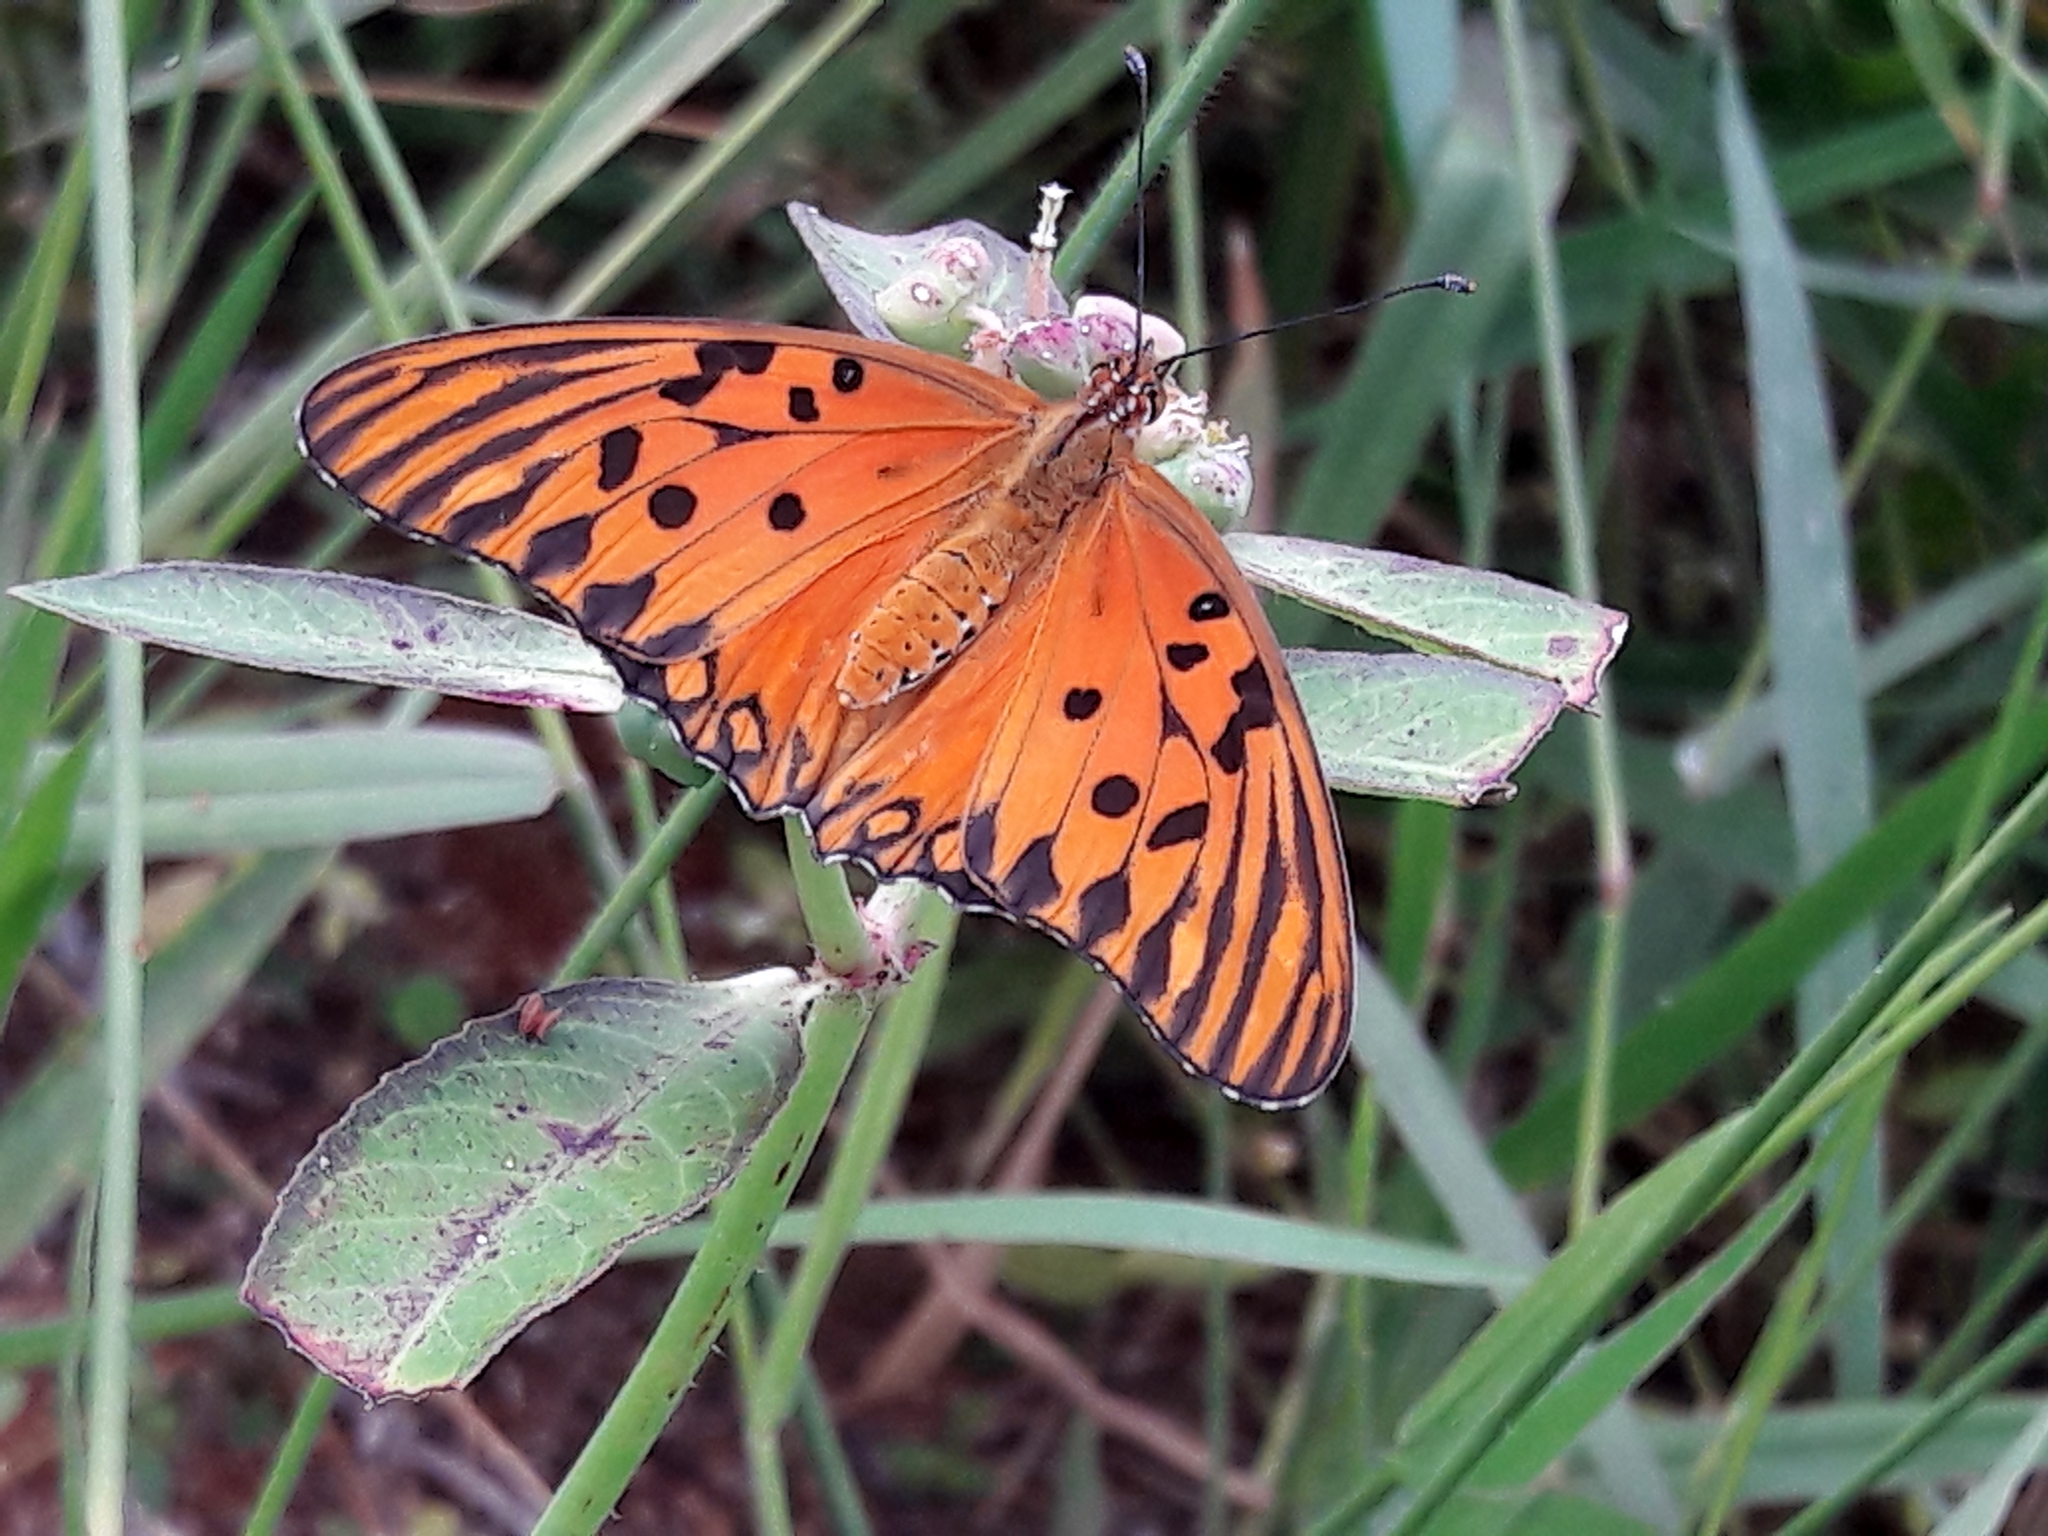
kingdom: Animalia
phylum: Arthropoda
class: Insecta
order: Lepidoptera
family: Nymphalidae
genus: Dione
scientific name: Dione vanillae
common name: Gulf fritillary
